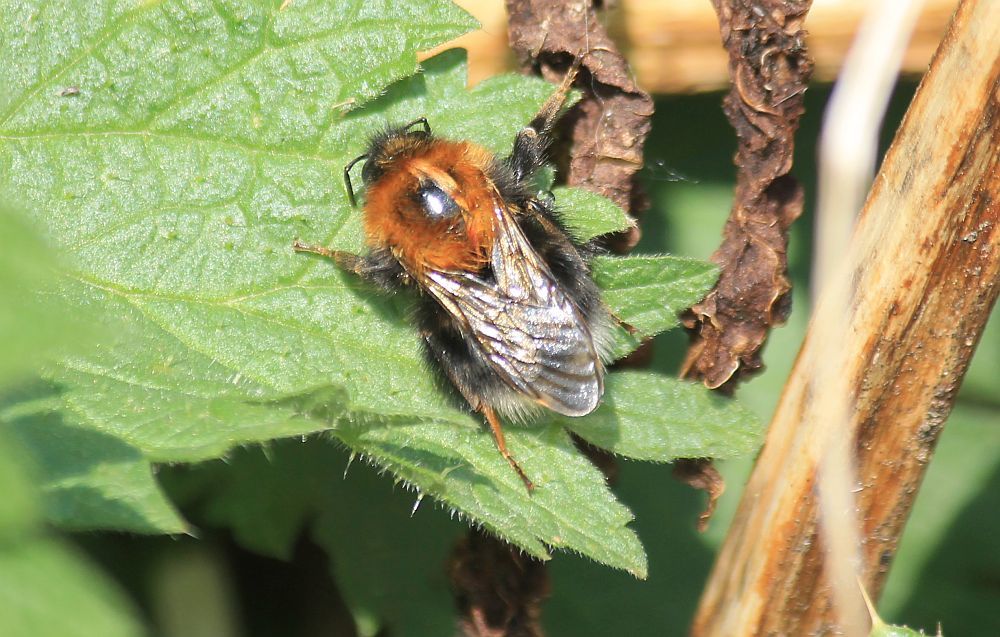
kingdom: Animalia
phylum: Arthropoda
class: Insecta
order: Hymenoptera
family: Apidae
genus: Bombus
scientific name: Bombus hypnorum
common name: New garden bumblebee
